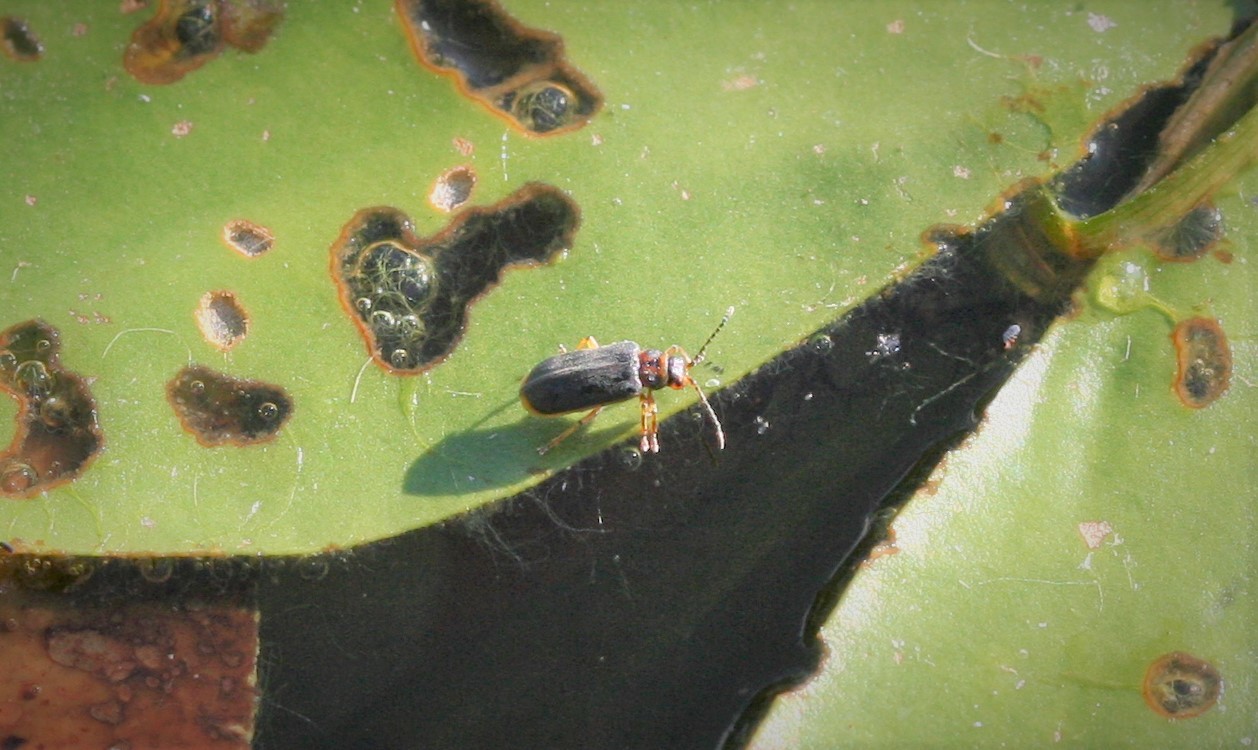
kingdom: Animalia
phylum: Arthropoda
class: Insecta
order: Coleoptera
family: Chrysomelidae
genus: Galerucella
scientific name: Galerucella nymphaeae
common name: Leaf beetle
